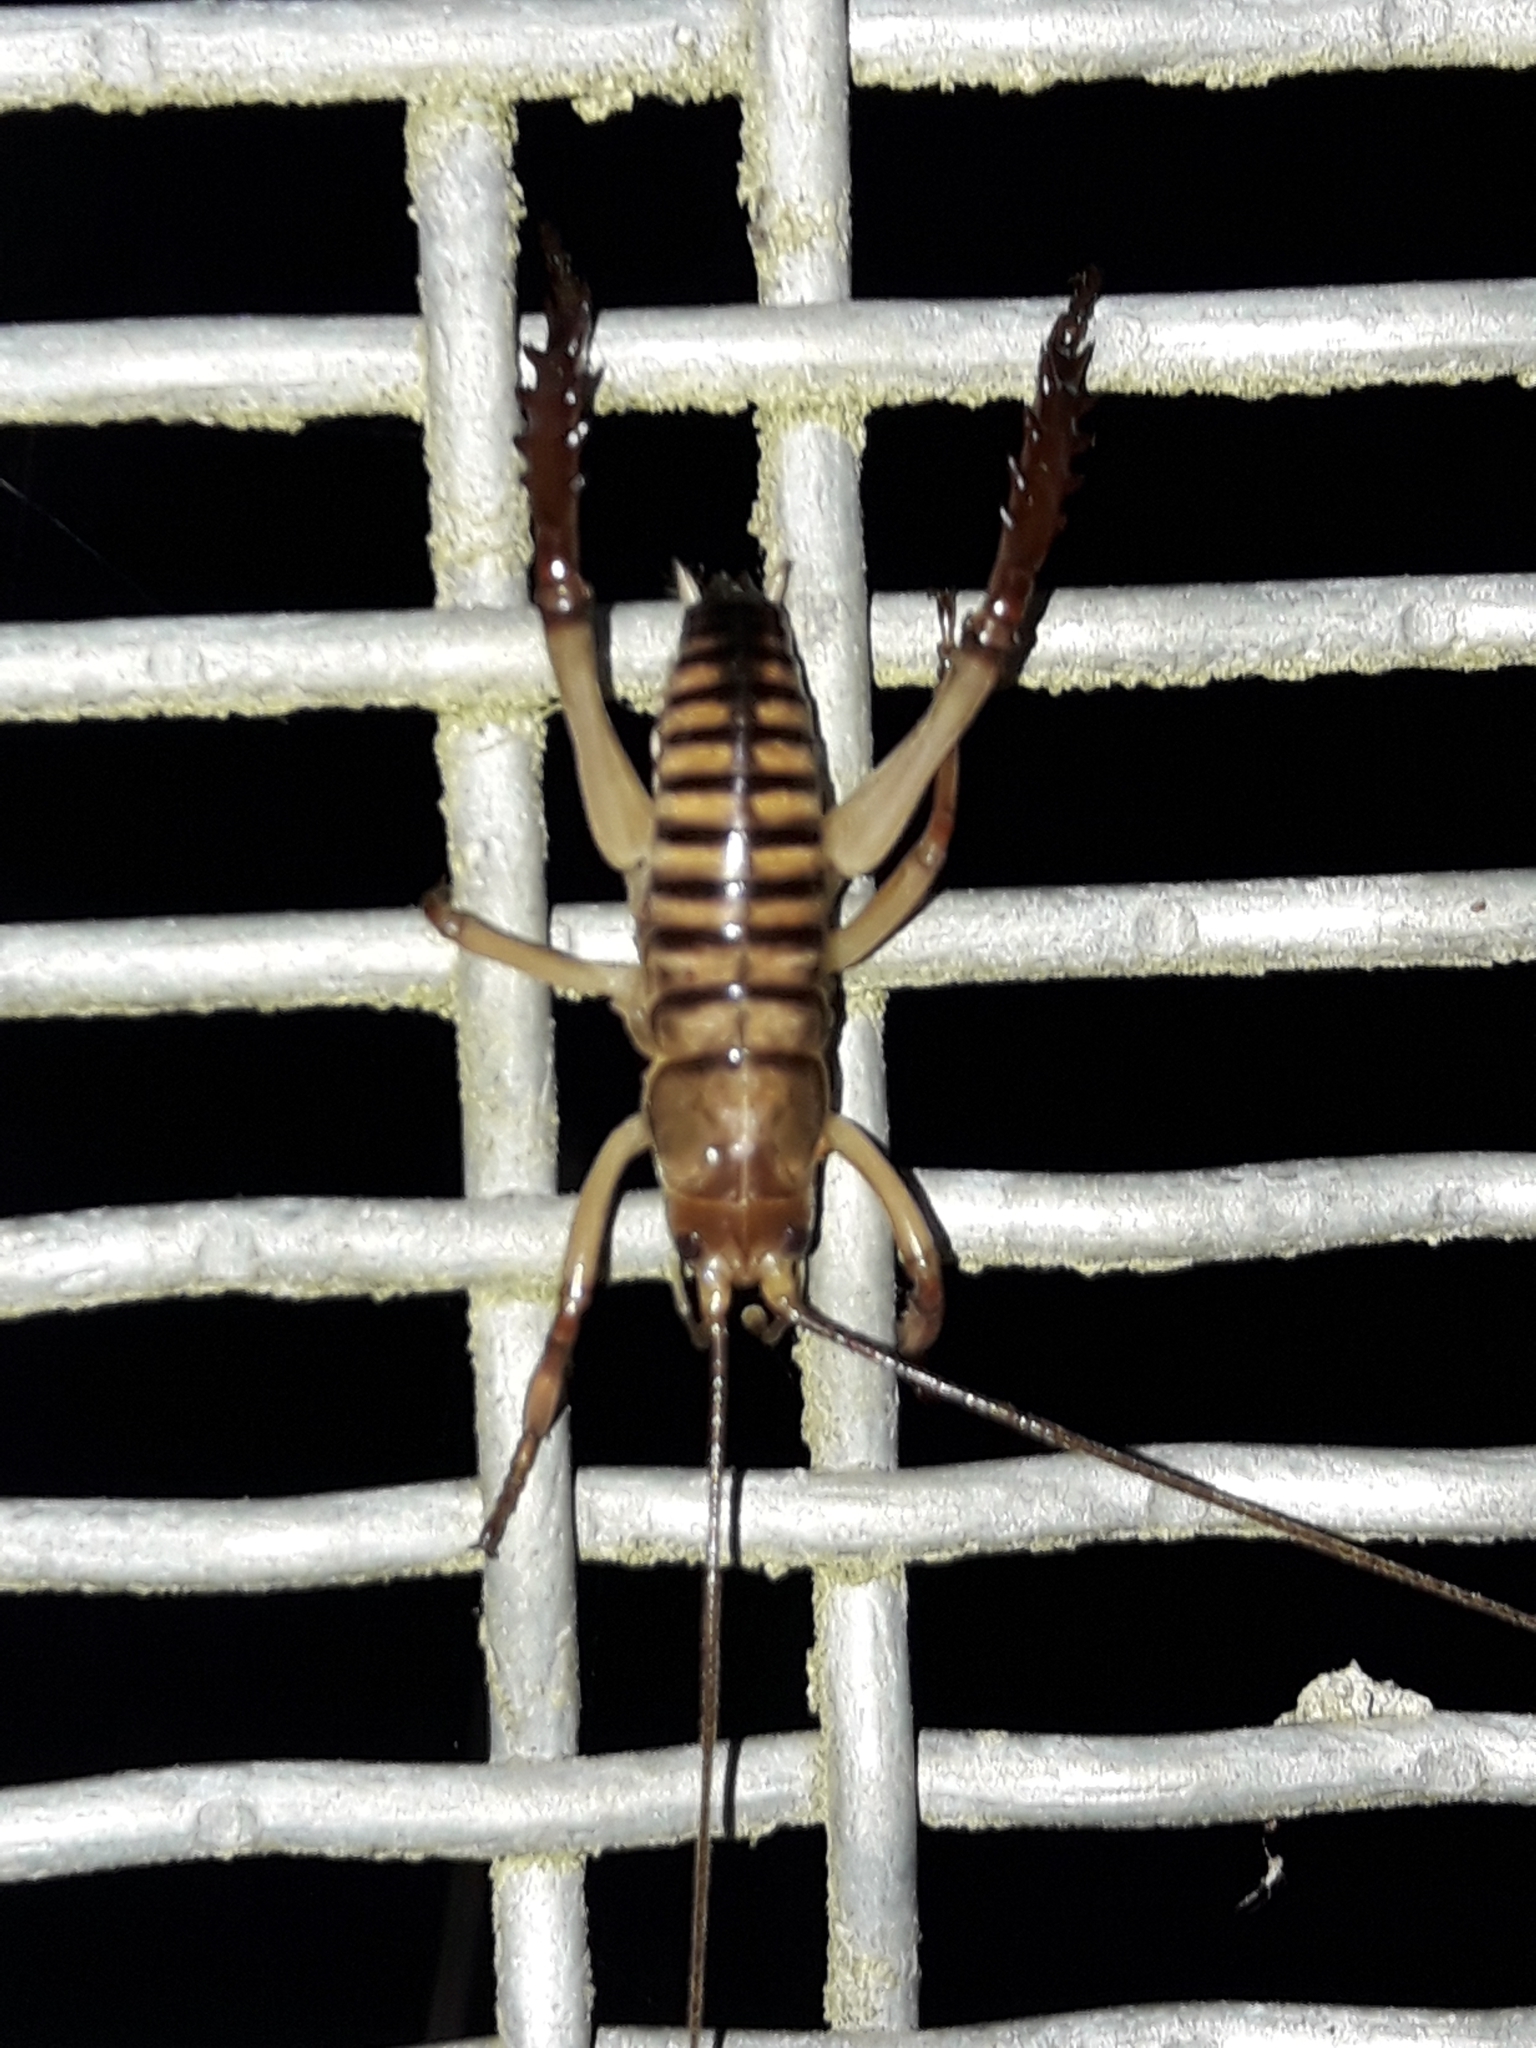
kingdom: Animalia
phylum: Arthropoda
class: Insecta
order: Orthoptera
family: Anostostomatidae
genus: Hemideina
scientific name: Hemideina crassidens
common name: Wellington tree weta
